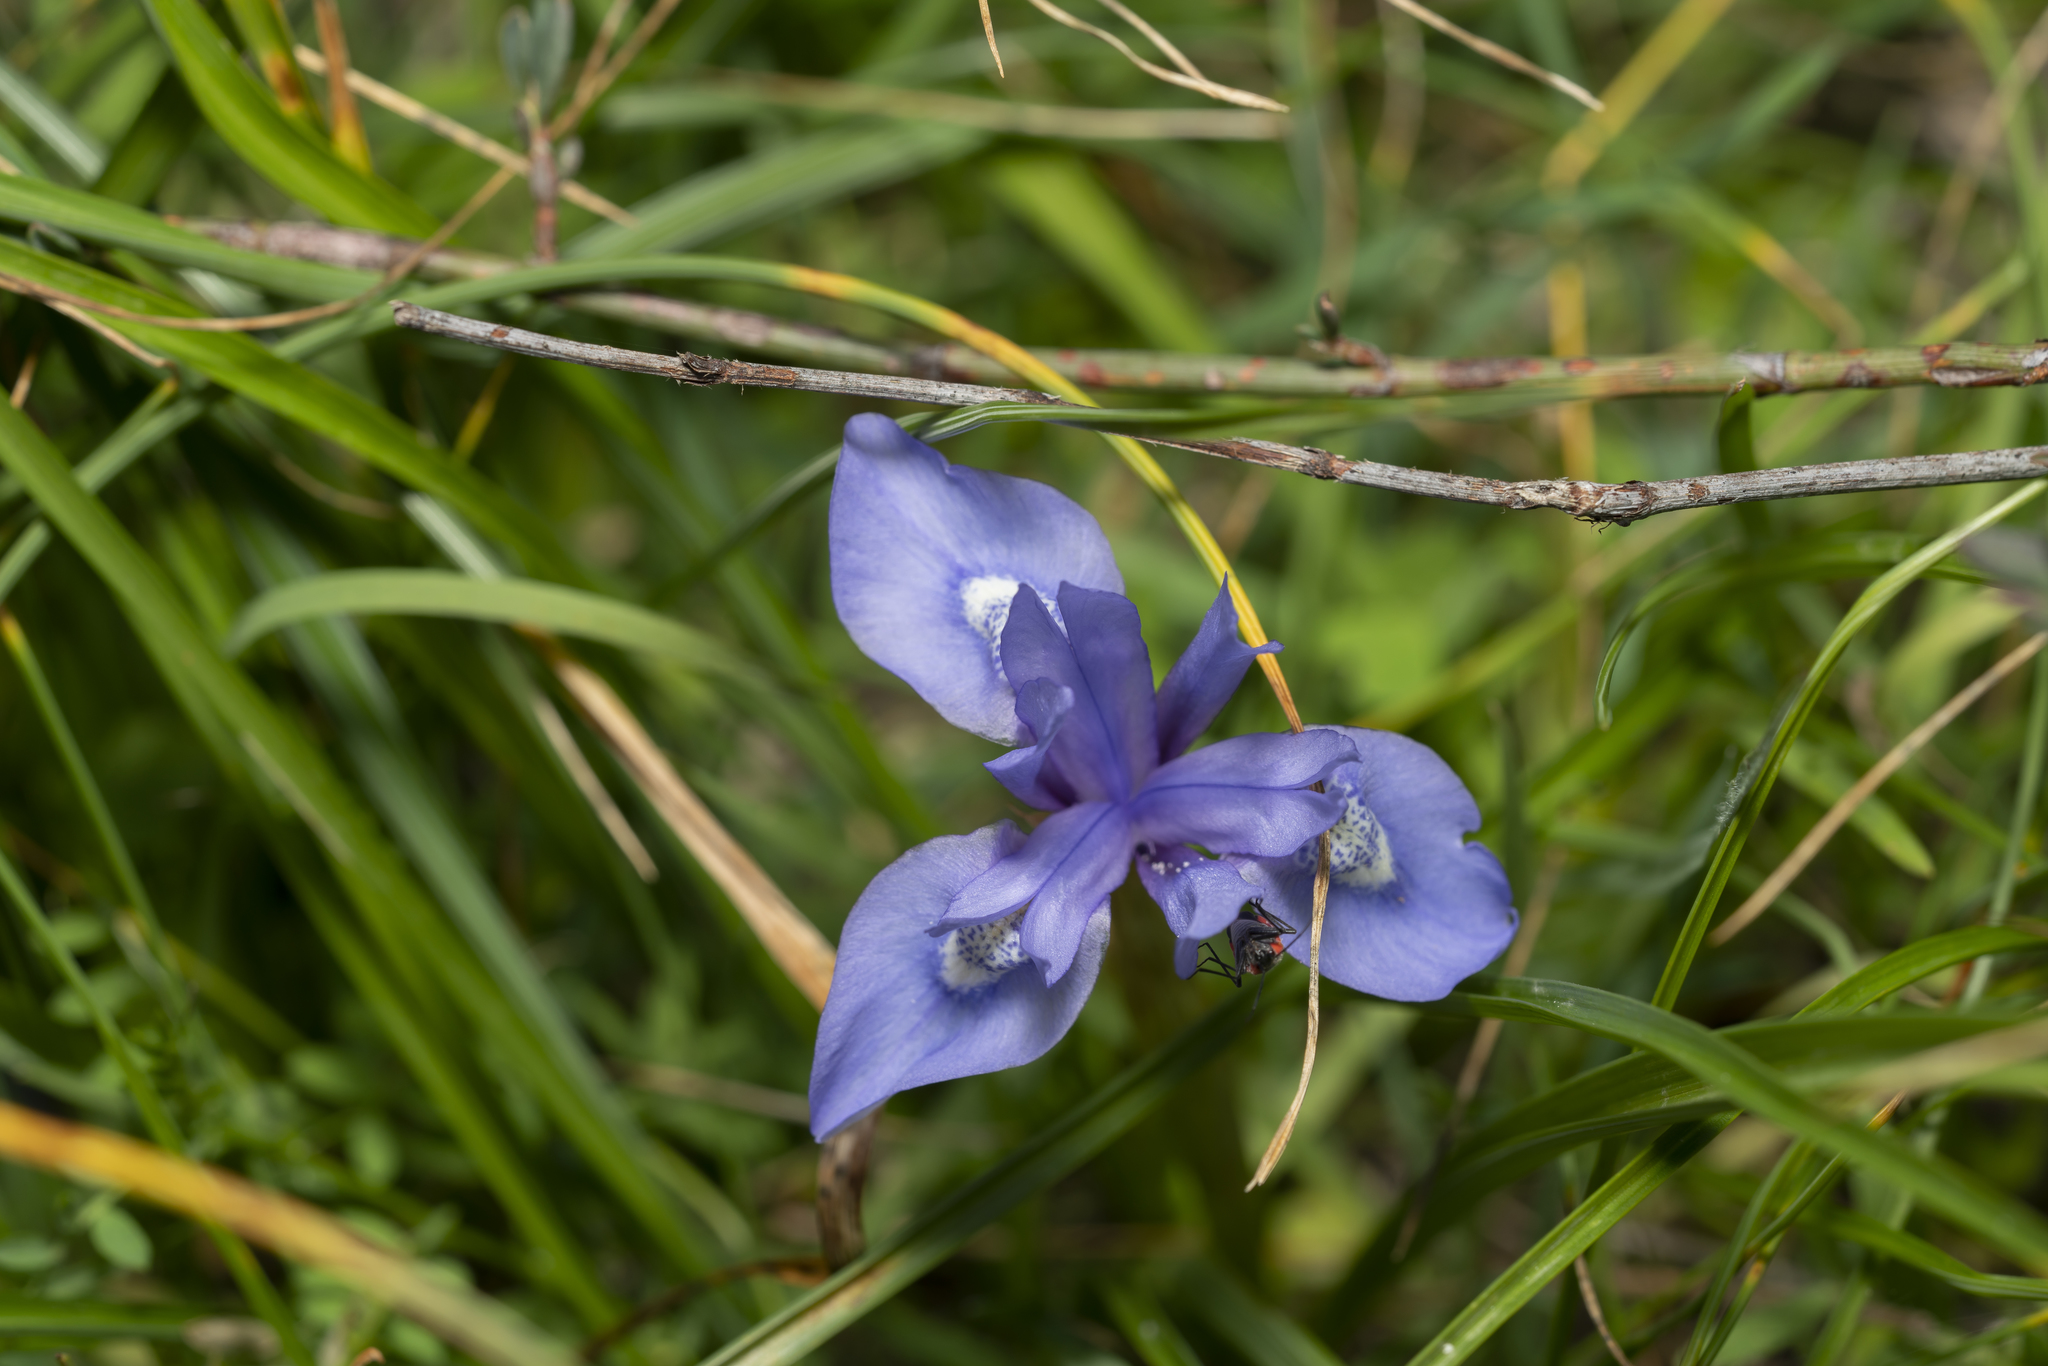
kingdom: Plantae
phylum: Tracheophyta
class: Liliopsida
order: Asparagales
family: Iridaceae
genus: Moraea
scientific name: Moraea sisyrinchium
